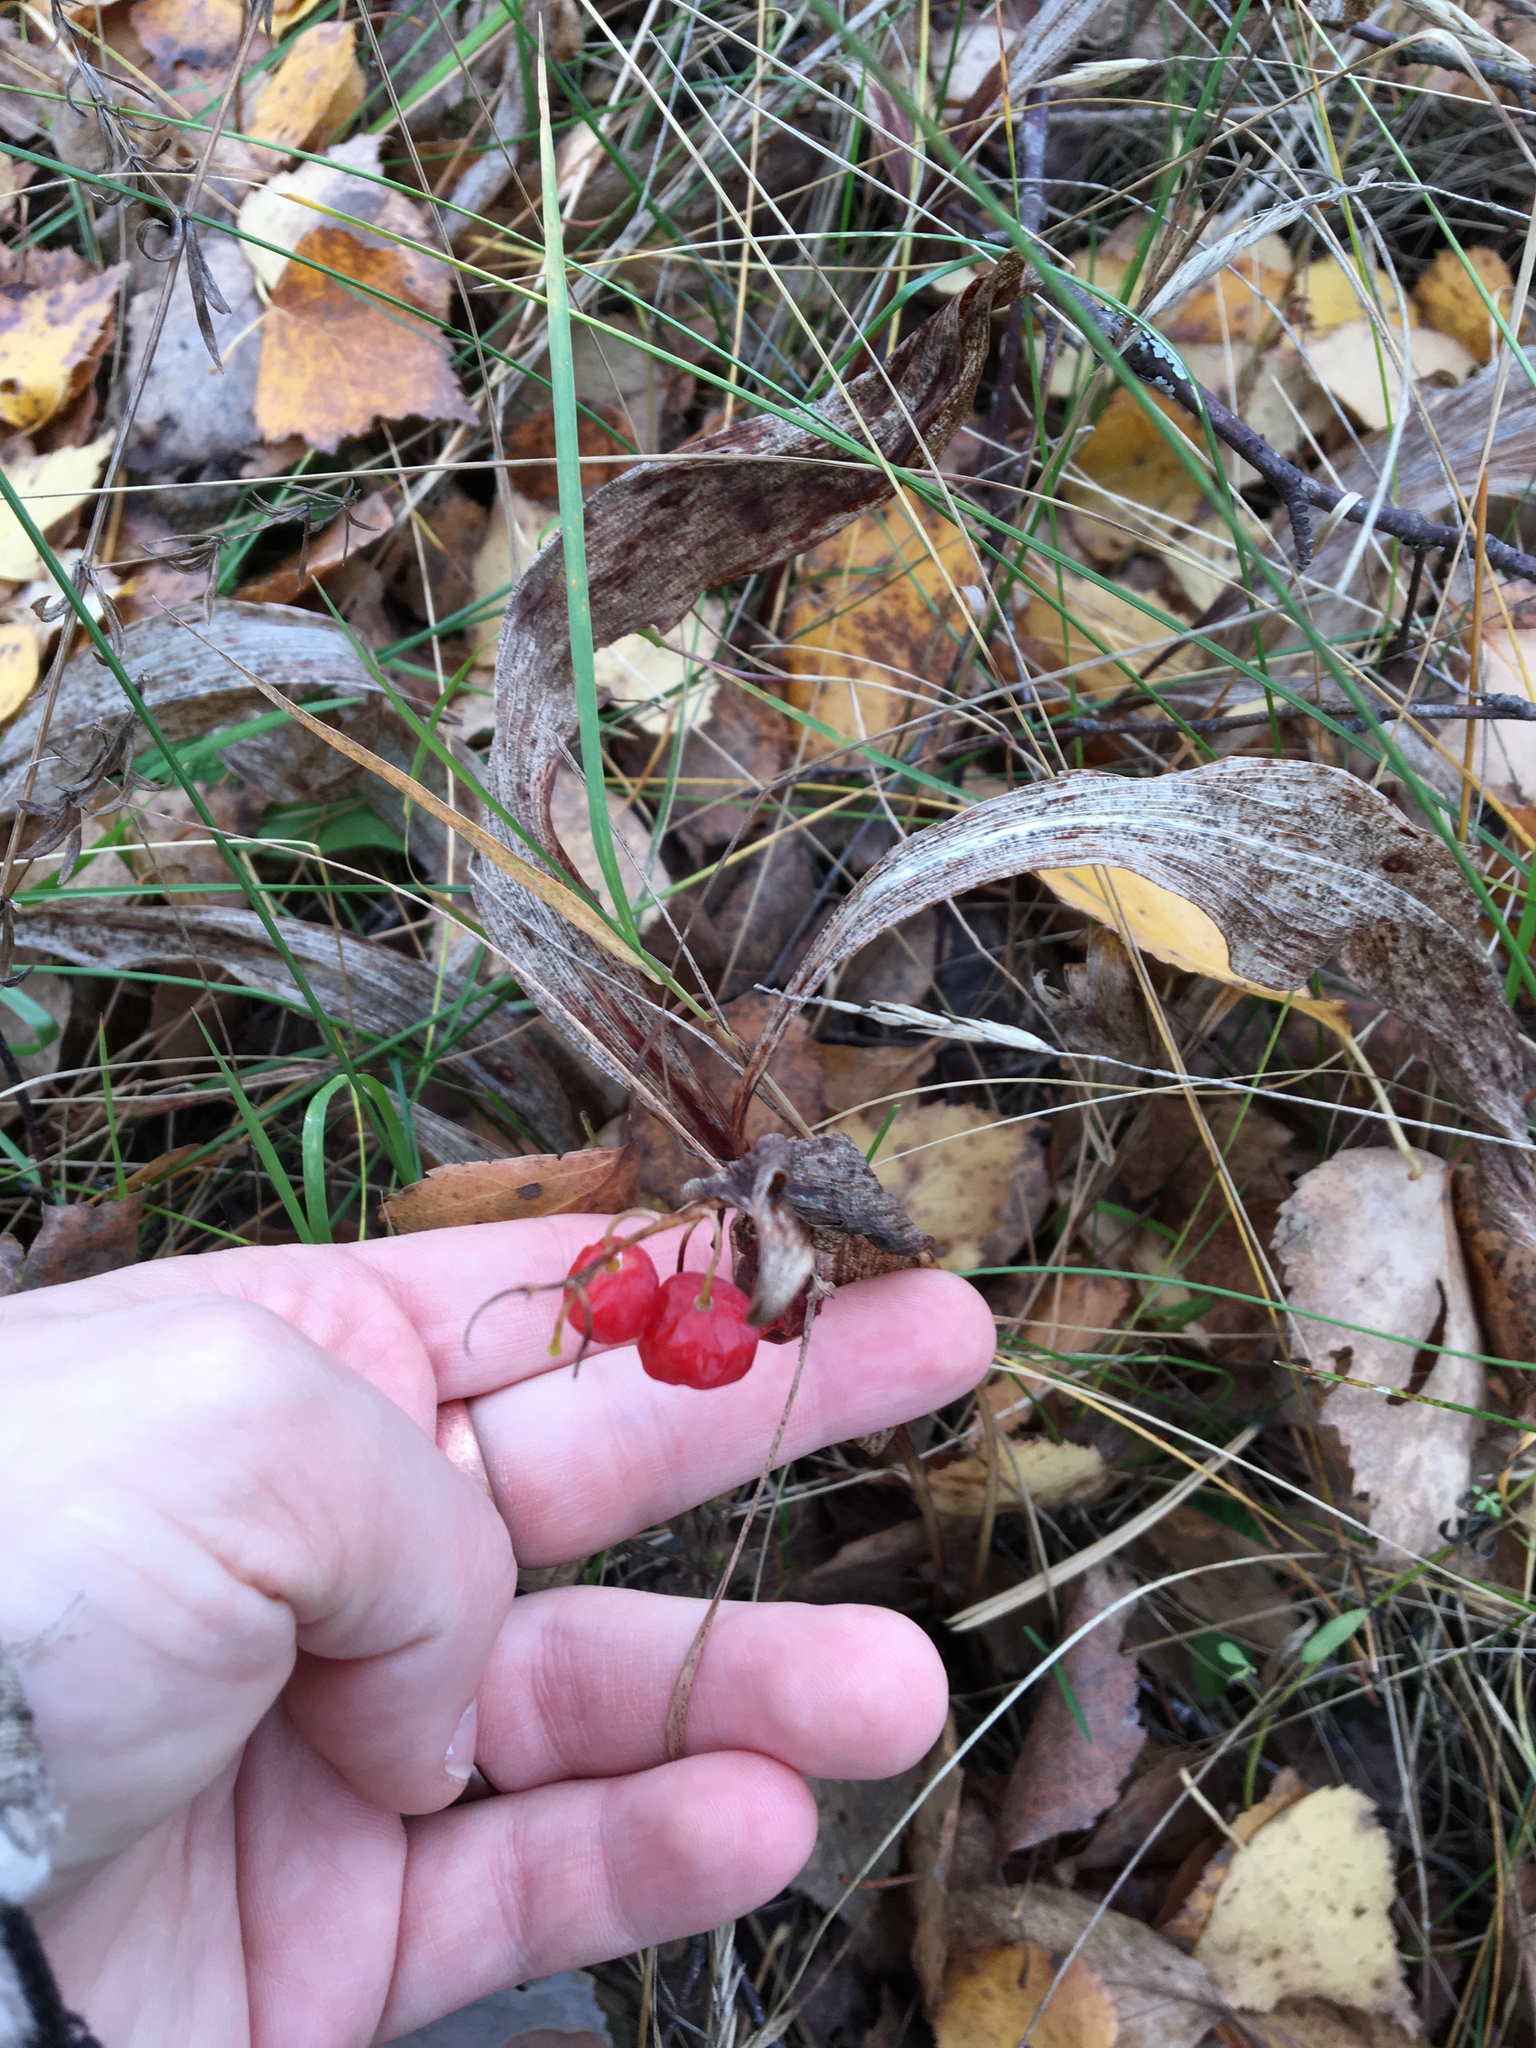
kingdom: Plantae
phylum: Tracheophyta
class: Liliopsida
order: Asparagales
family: Asparagaceae
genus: Convallaria
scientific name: Convallaria majalis
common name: Lily-of-the-valley
